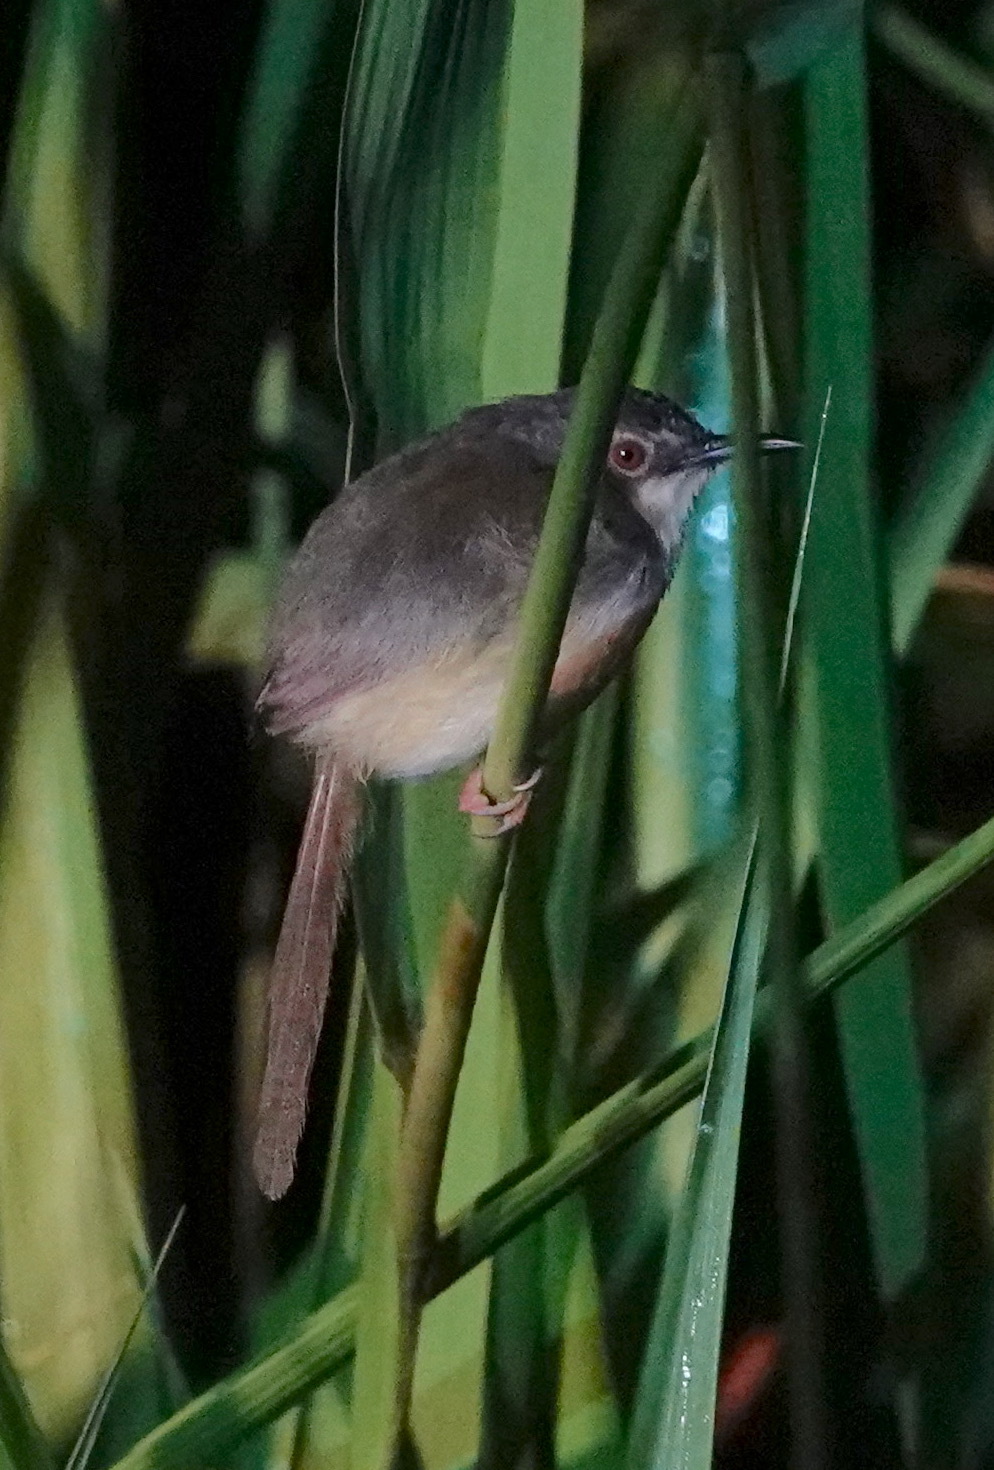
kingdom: Animalia
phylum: Chordata
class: Aves
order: Passeriformes
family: Cisticolidae
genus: Prinia
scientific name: Prinia flaviventris
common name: Yellow-bellied prinia
